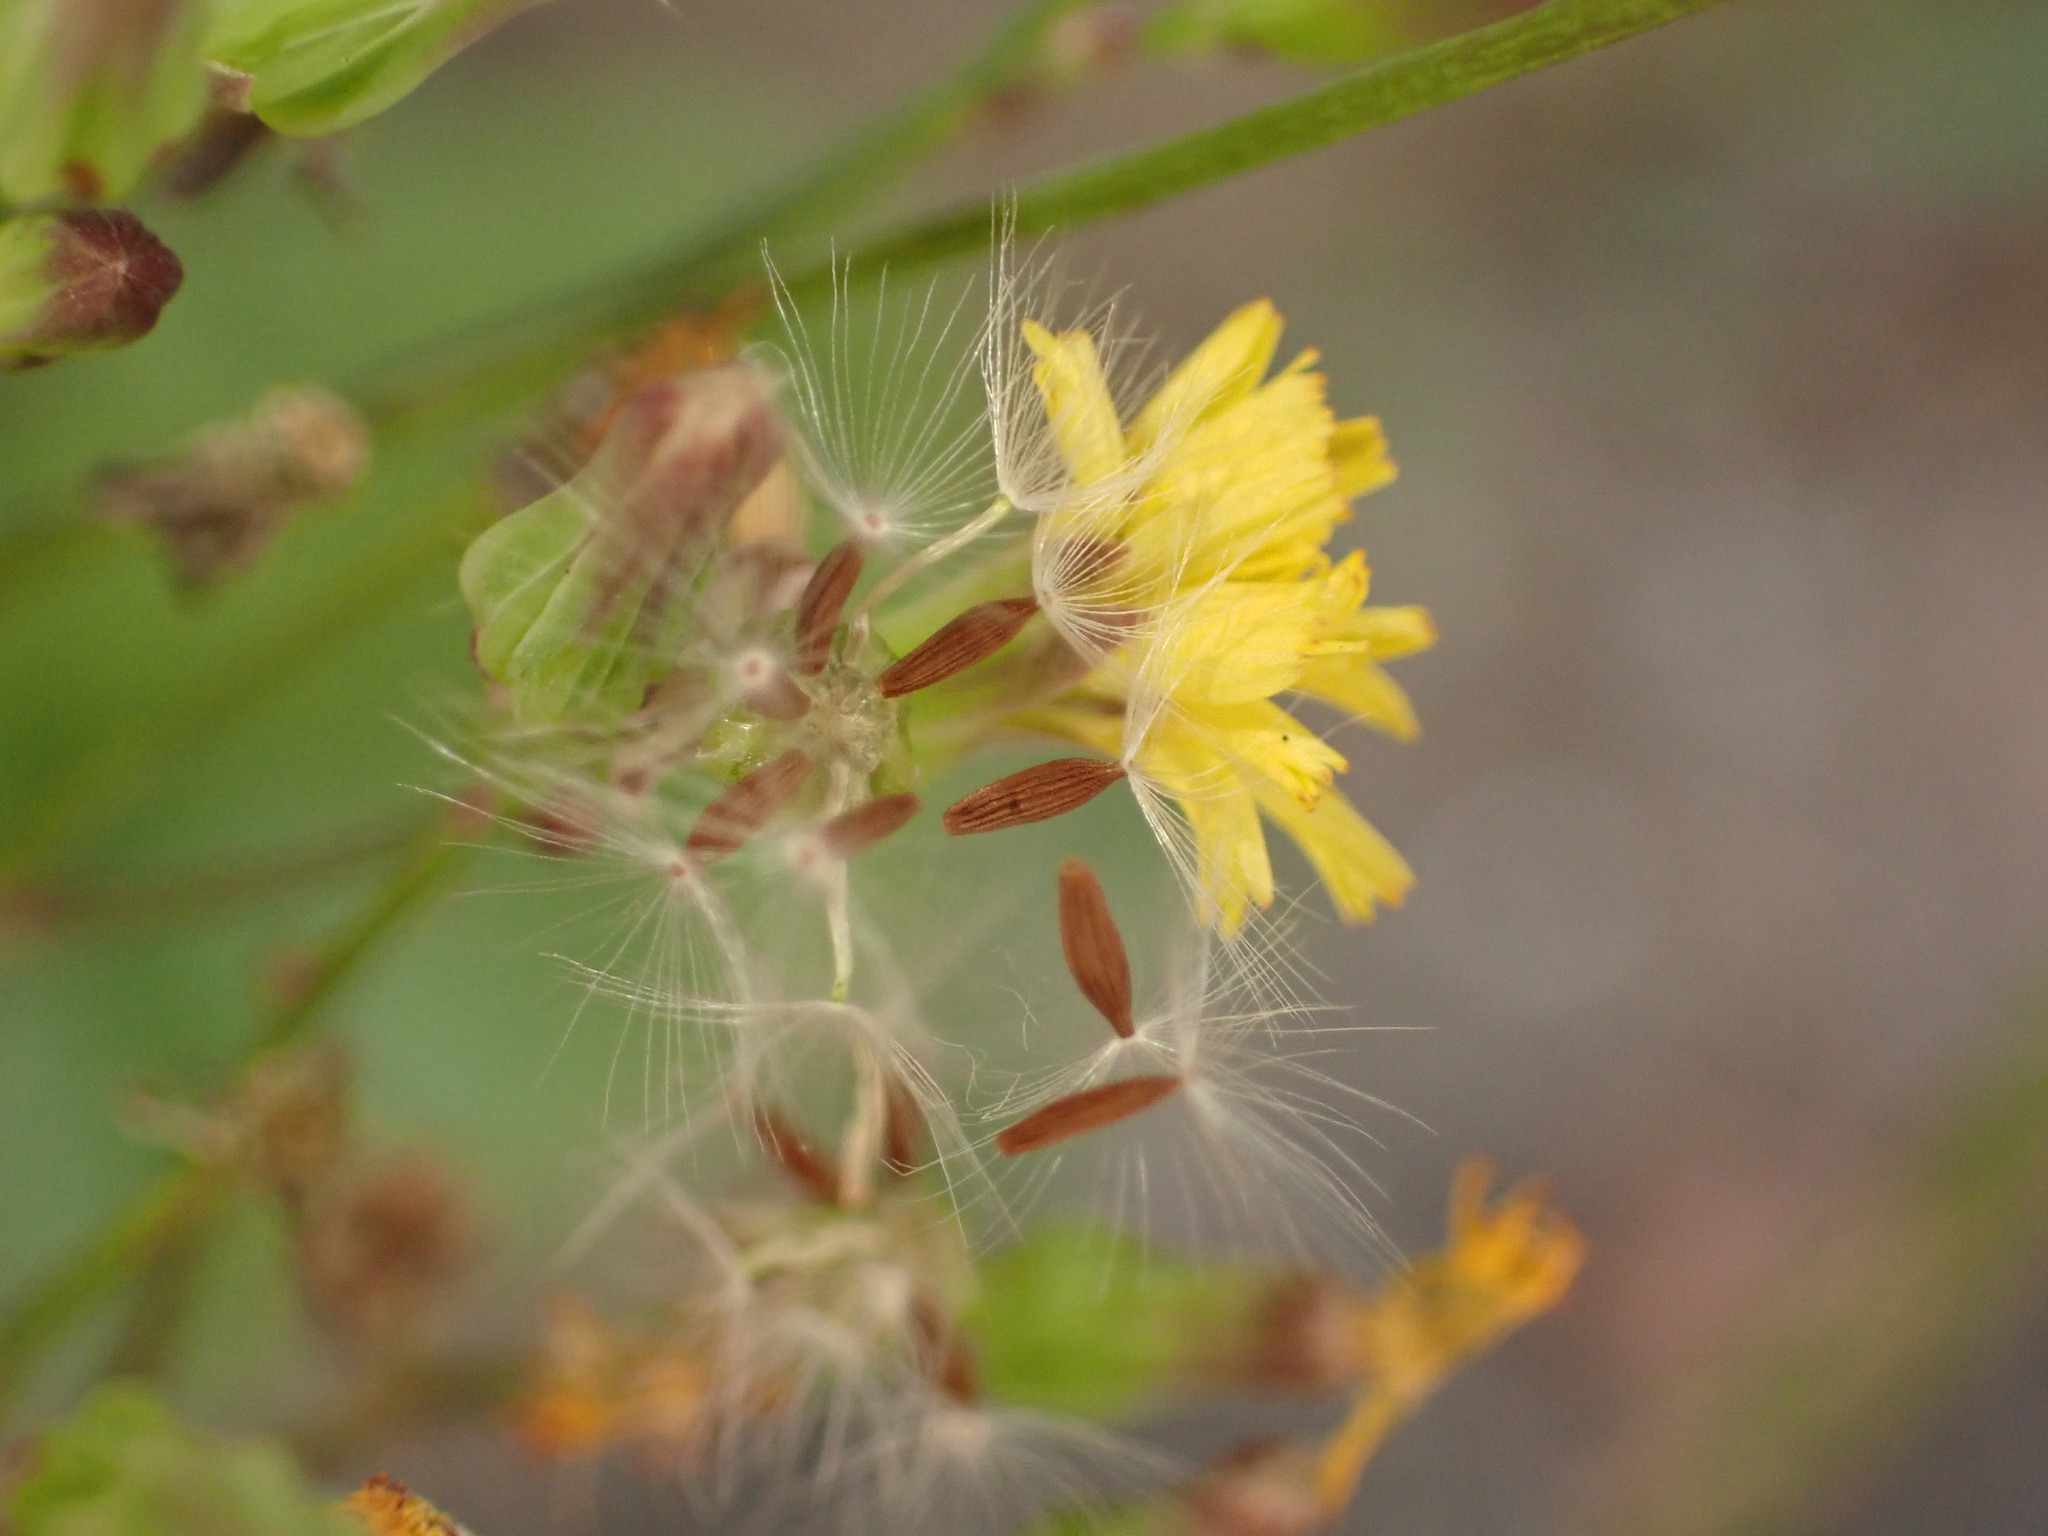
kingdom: Plantae
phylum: Tracheophyta
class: Magnoliopsida
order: Asterales
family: Asteraceae
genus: Youngia
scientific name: Youngia japonica
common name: Oriental false hawksbeard
